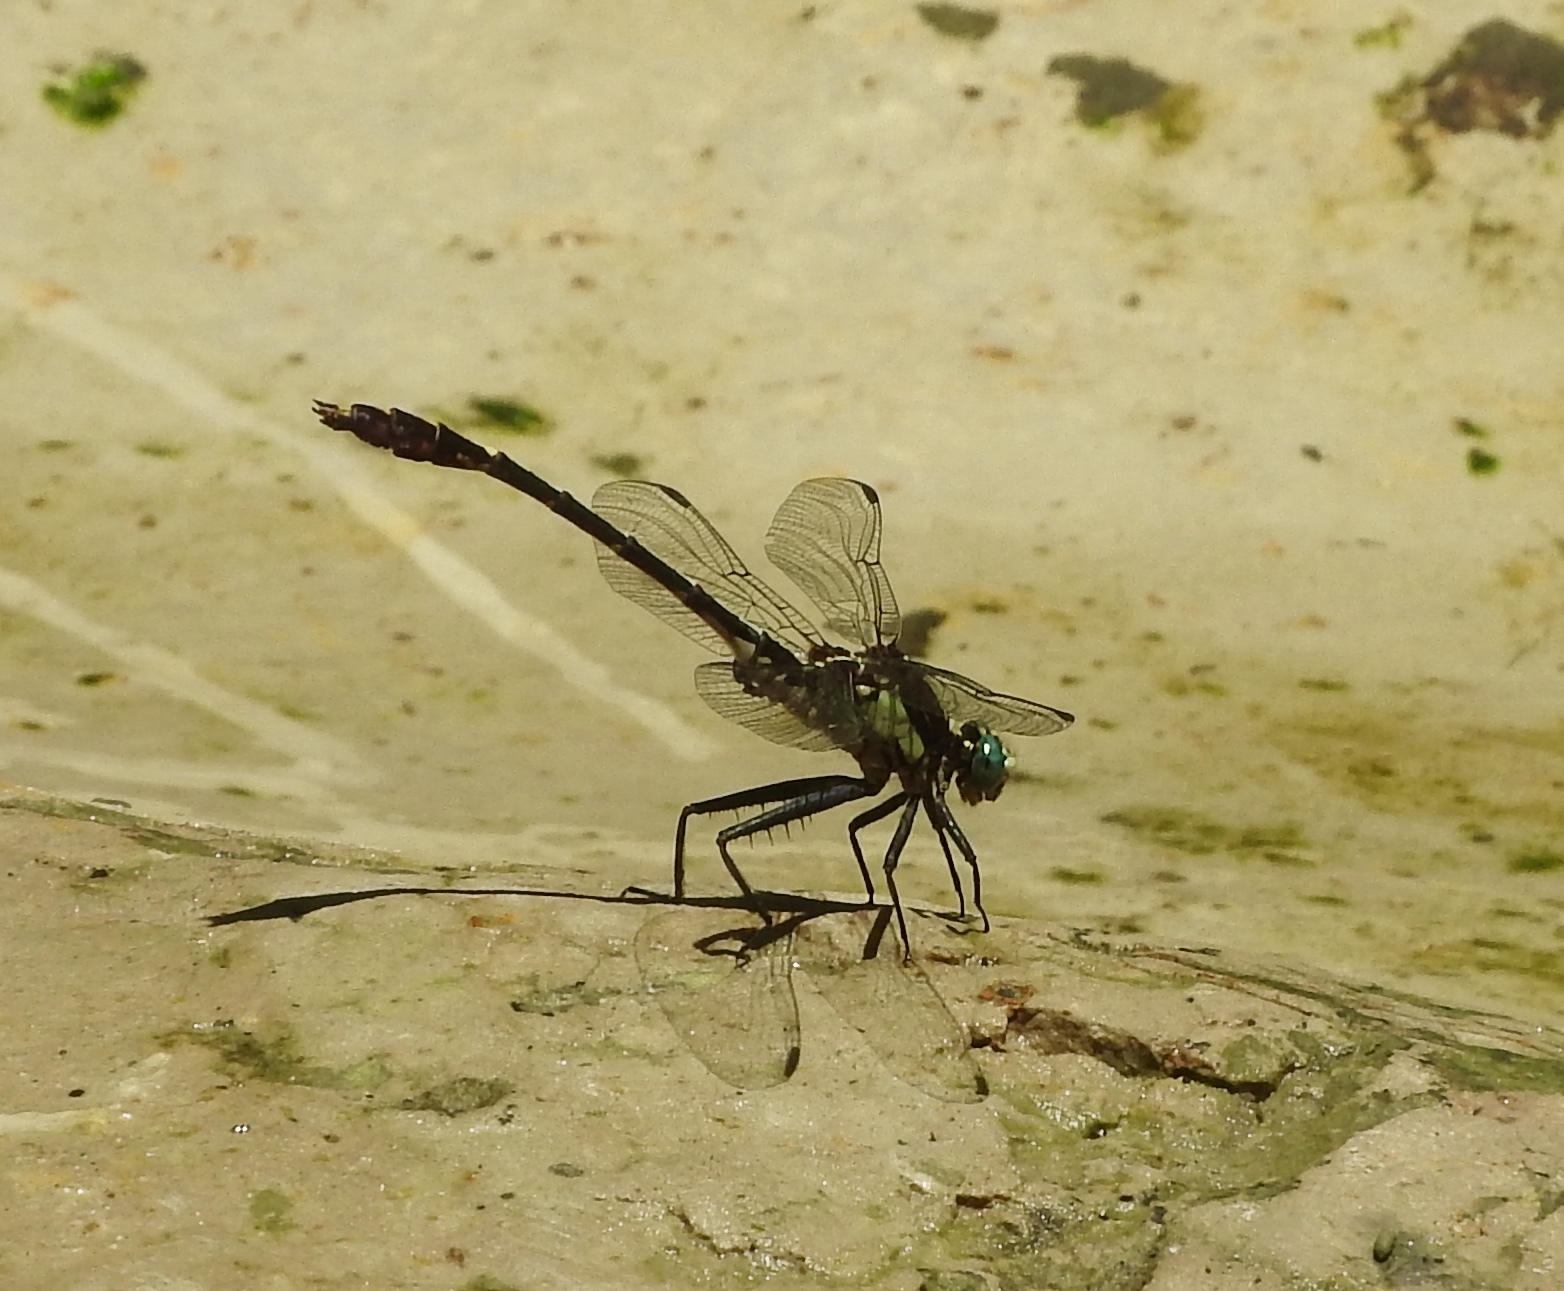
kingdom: Animalia
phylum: Arthropoda
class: Insecta
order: Odonata
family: Gomphidae
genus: Dromogomphus
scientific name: Dromogomphus spinosus
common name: Black-shouldered spinyleg
